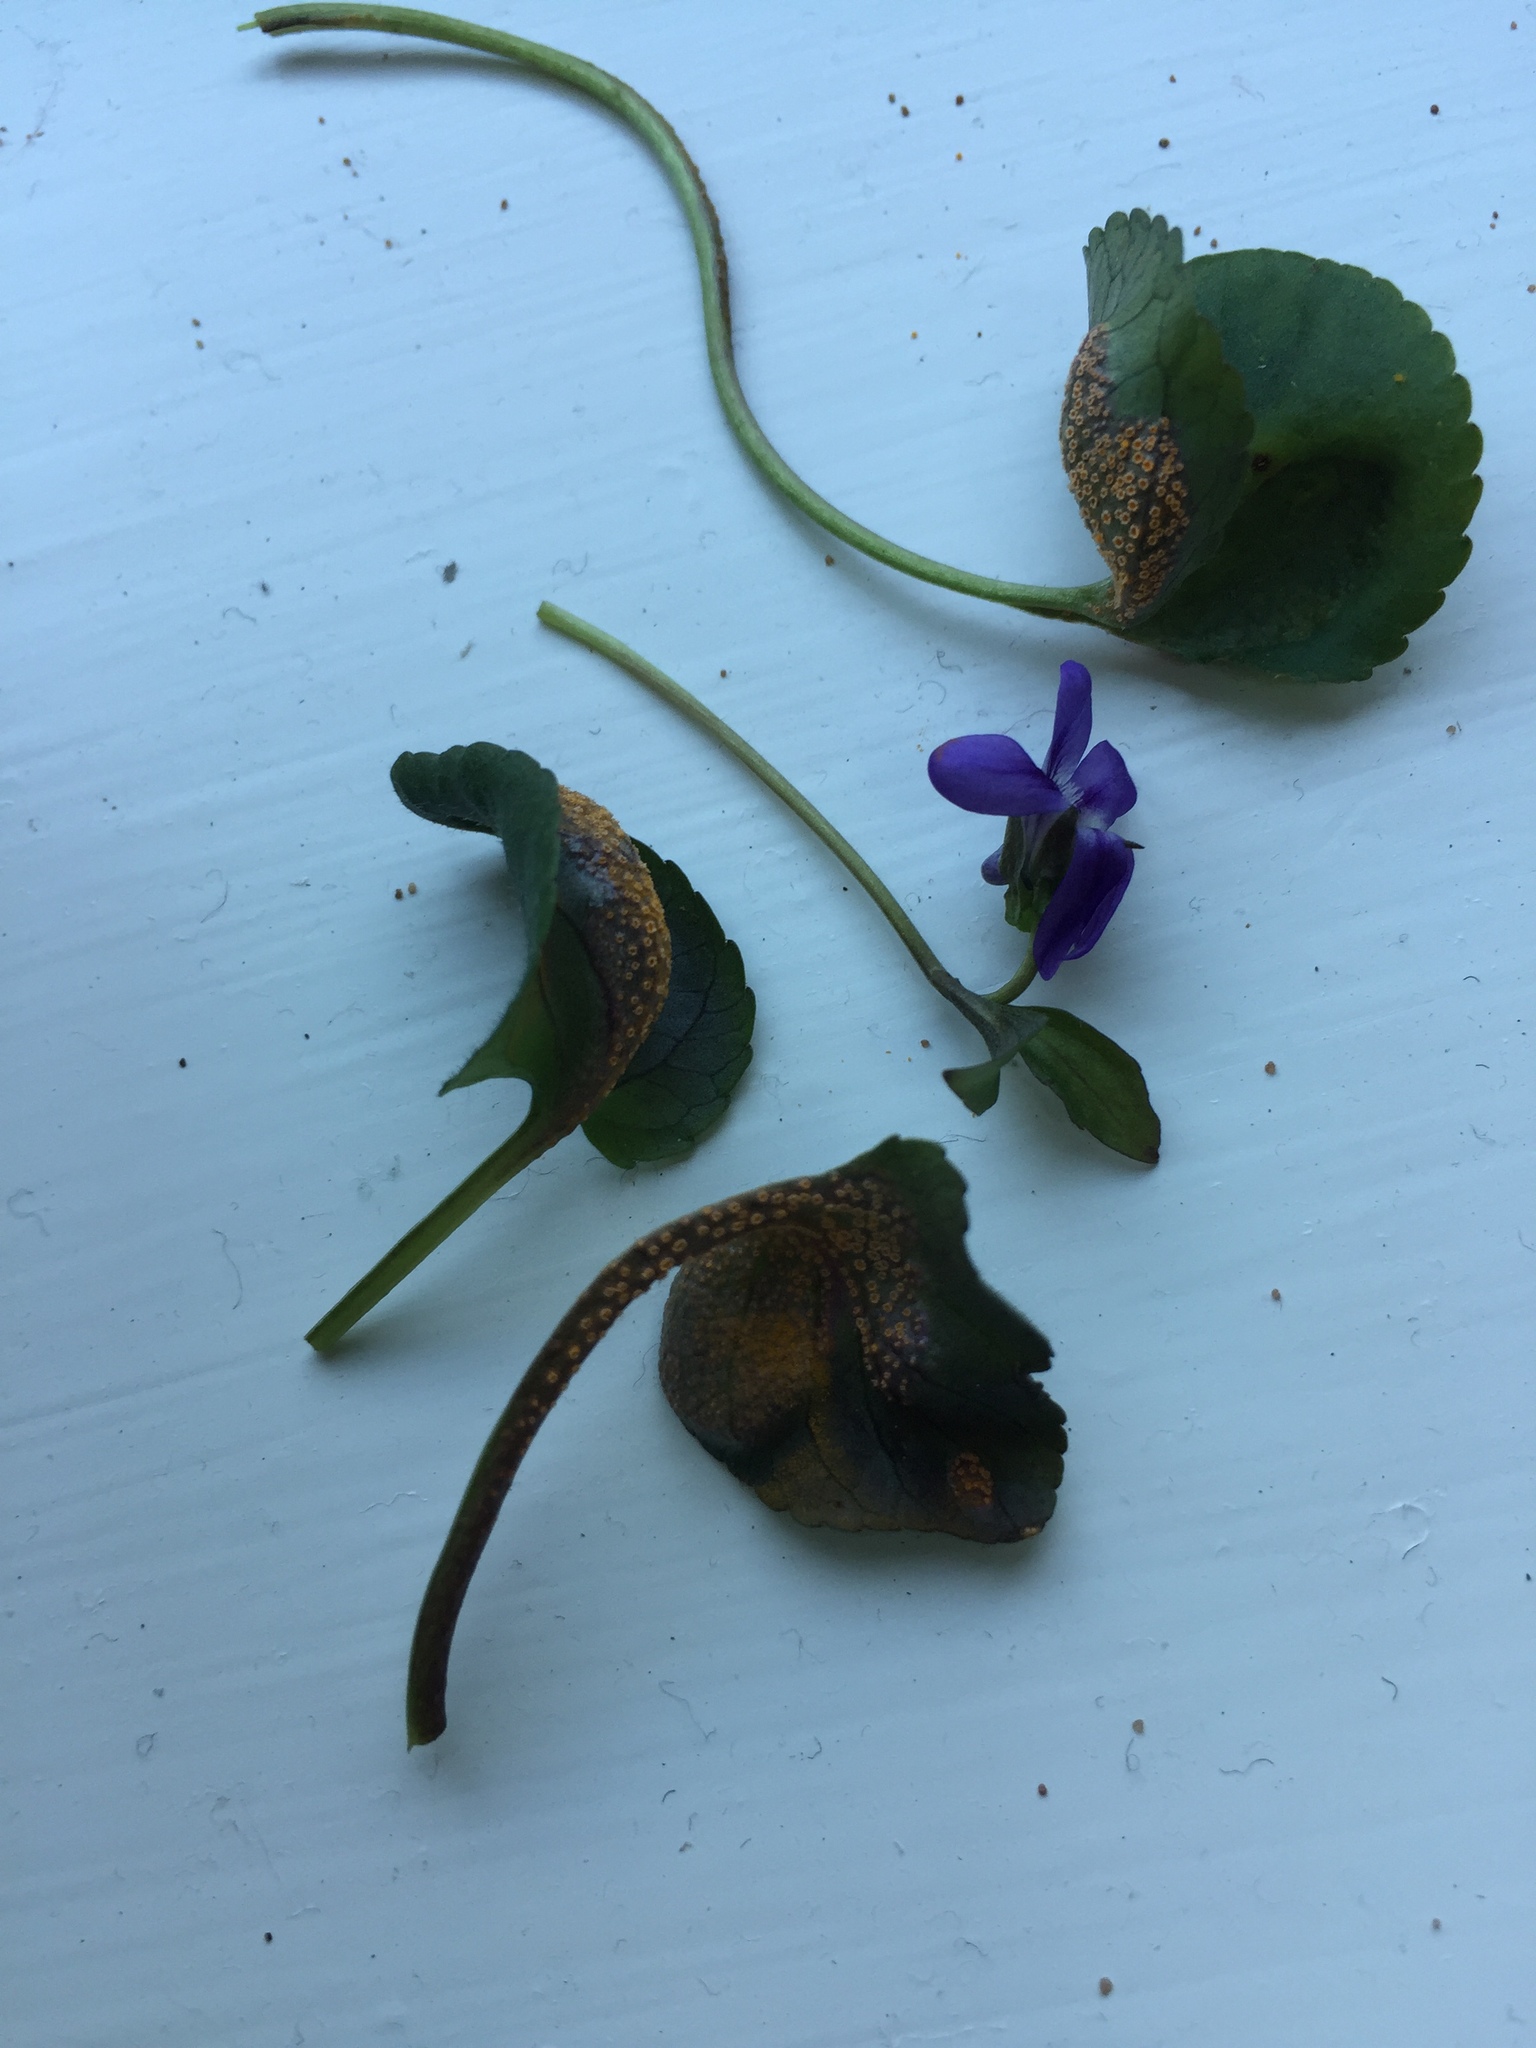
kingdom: Fungi
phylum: Basidiomycota
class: Pucciniomycetes
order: Pucciniales
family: Pucciniaceae
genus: Puccinia
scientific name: Puccinia violae
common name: Violet rust
